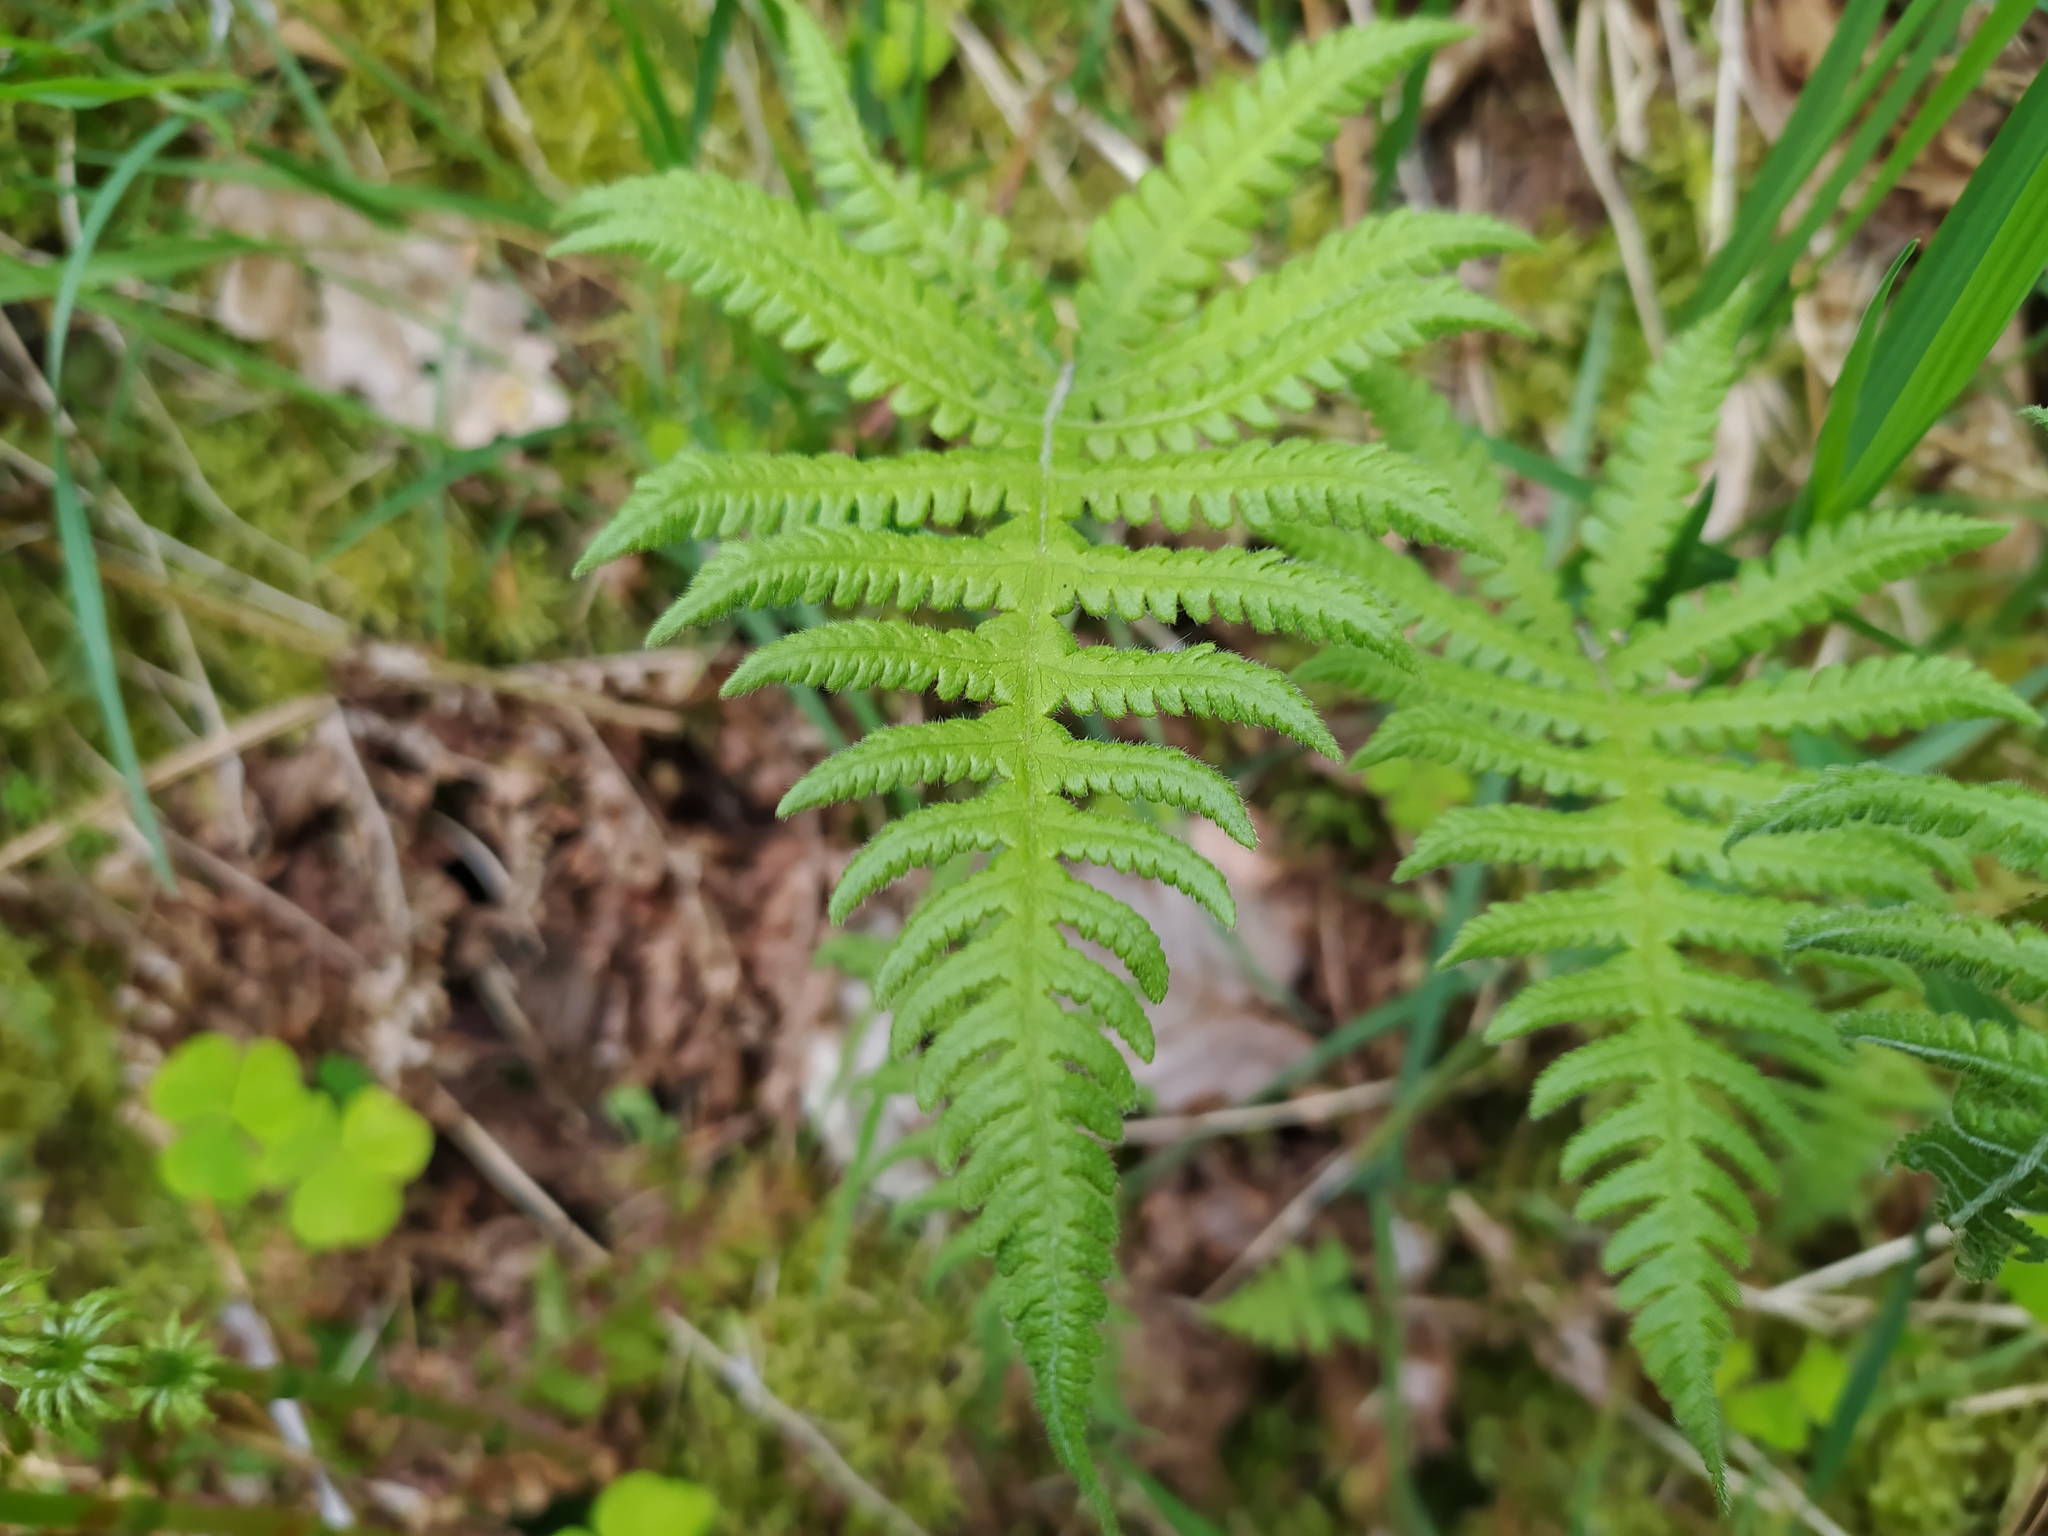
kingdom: Plantae
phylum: Tracheophyta
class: Polypodiopsida
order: Polypodiales
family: Thelypteridaceae
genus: Phegopteris
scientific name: Phegopteris connectilis
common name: Beech fern
